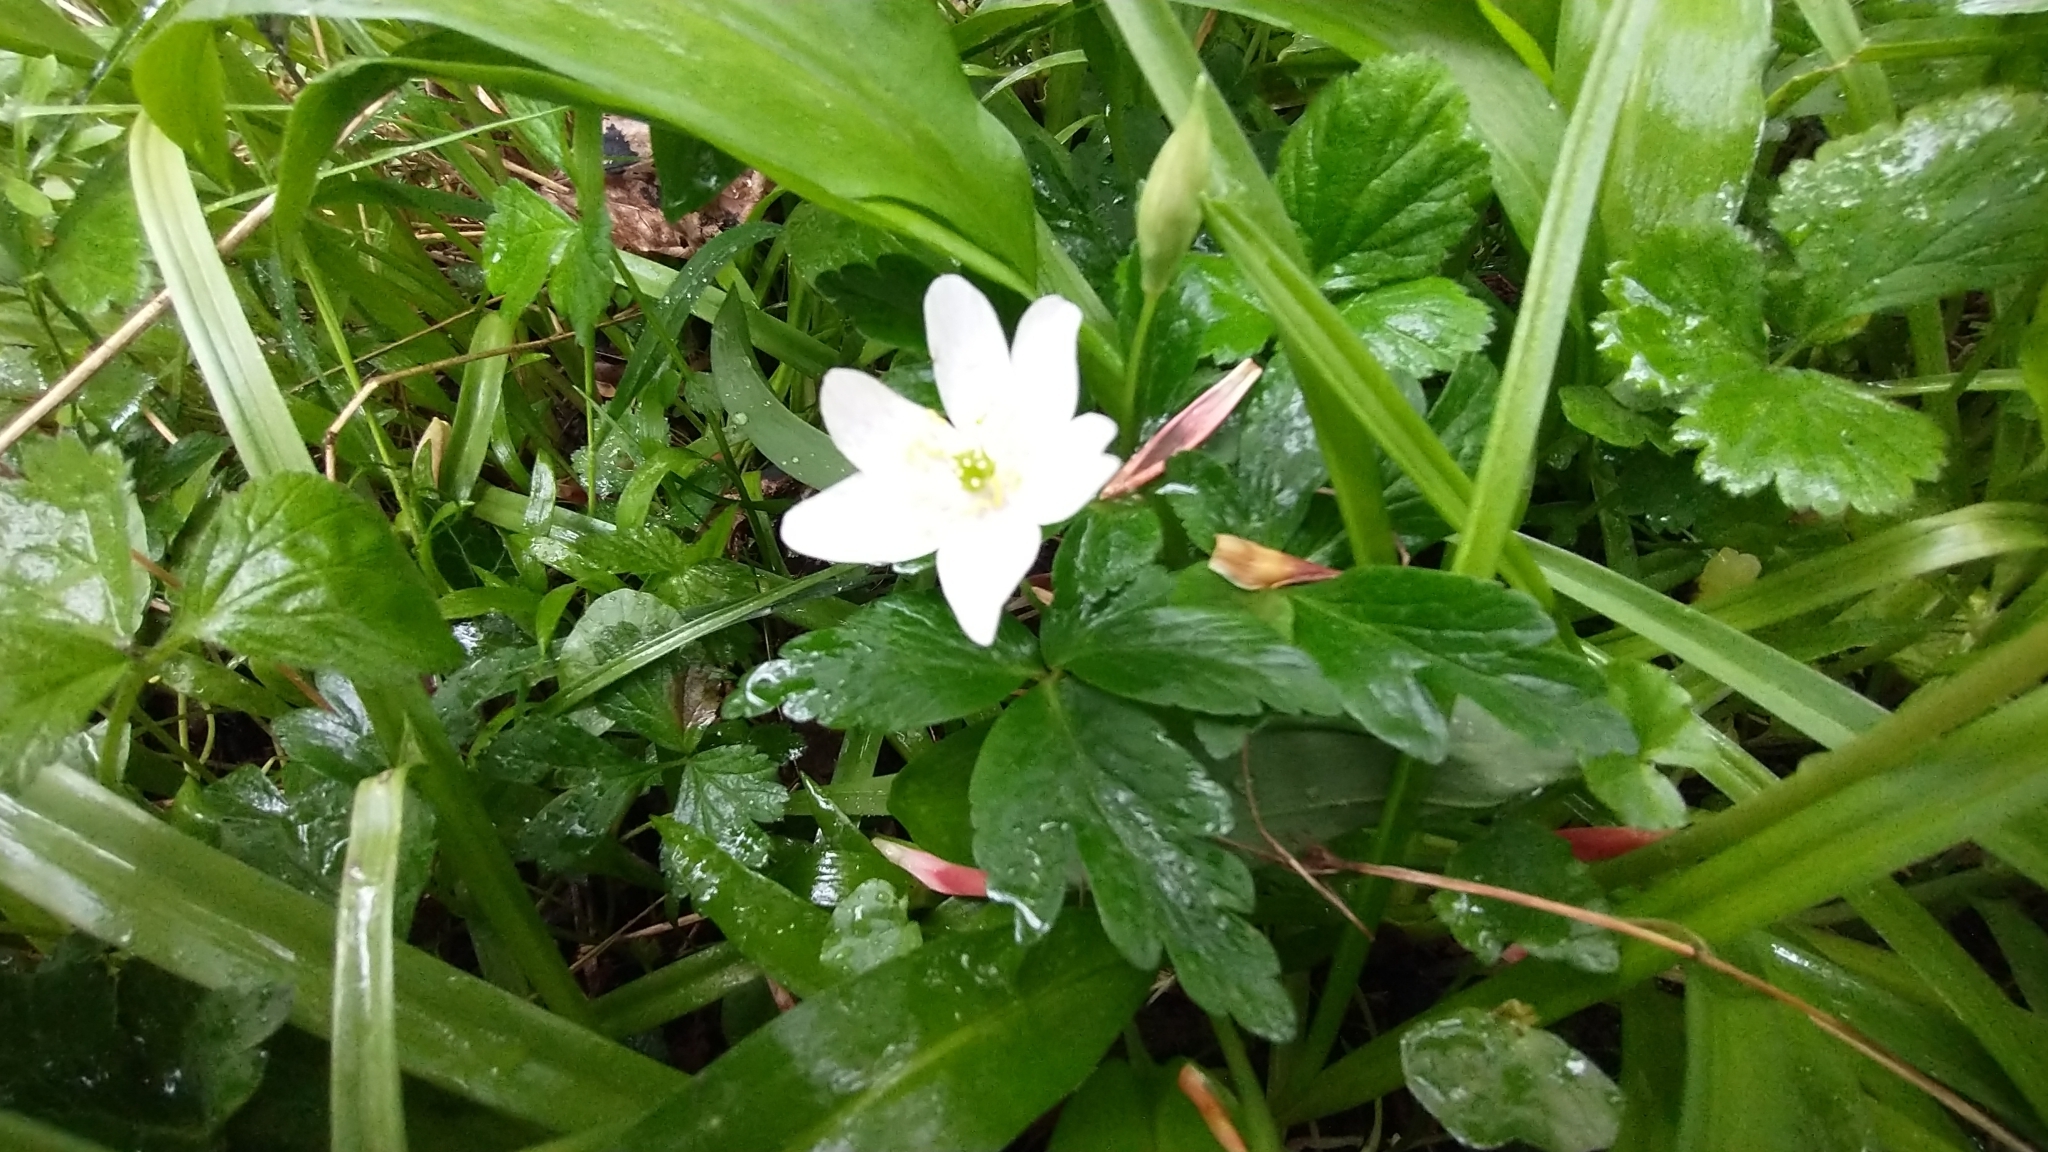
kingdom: Plantae
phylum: Tracheophyta
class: Magnoliopsida
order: Ranunculales
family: Ranunculaceae
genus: Anemone
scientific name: Anemone nemorosa
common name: Wood anemone
